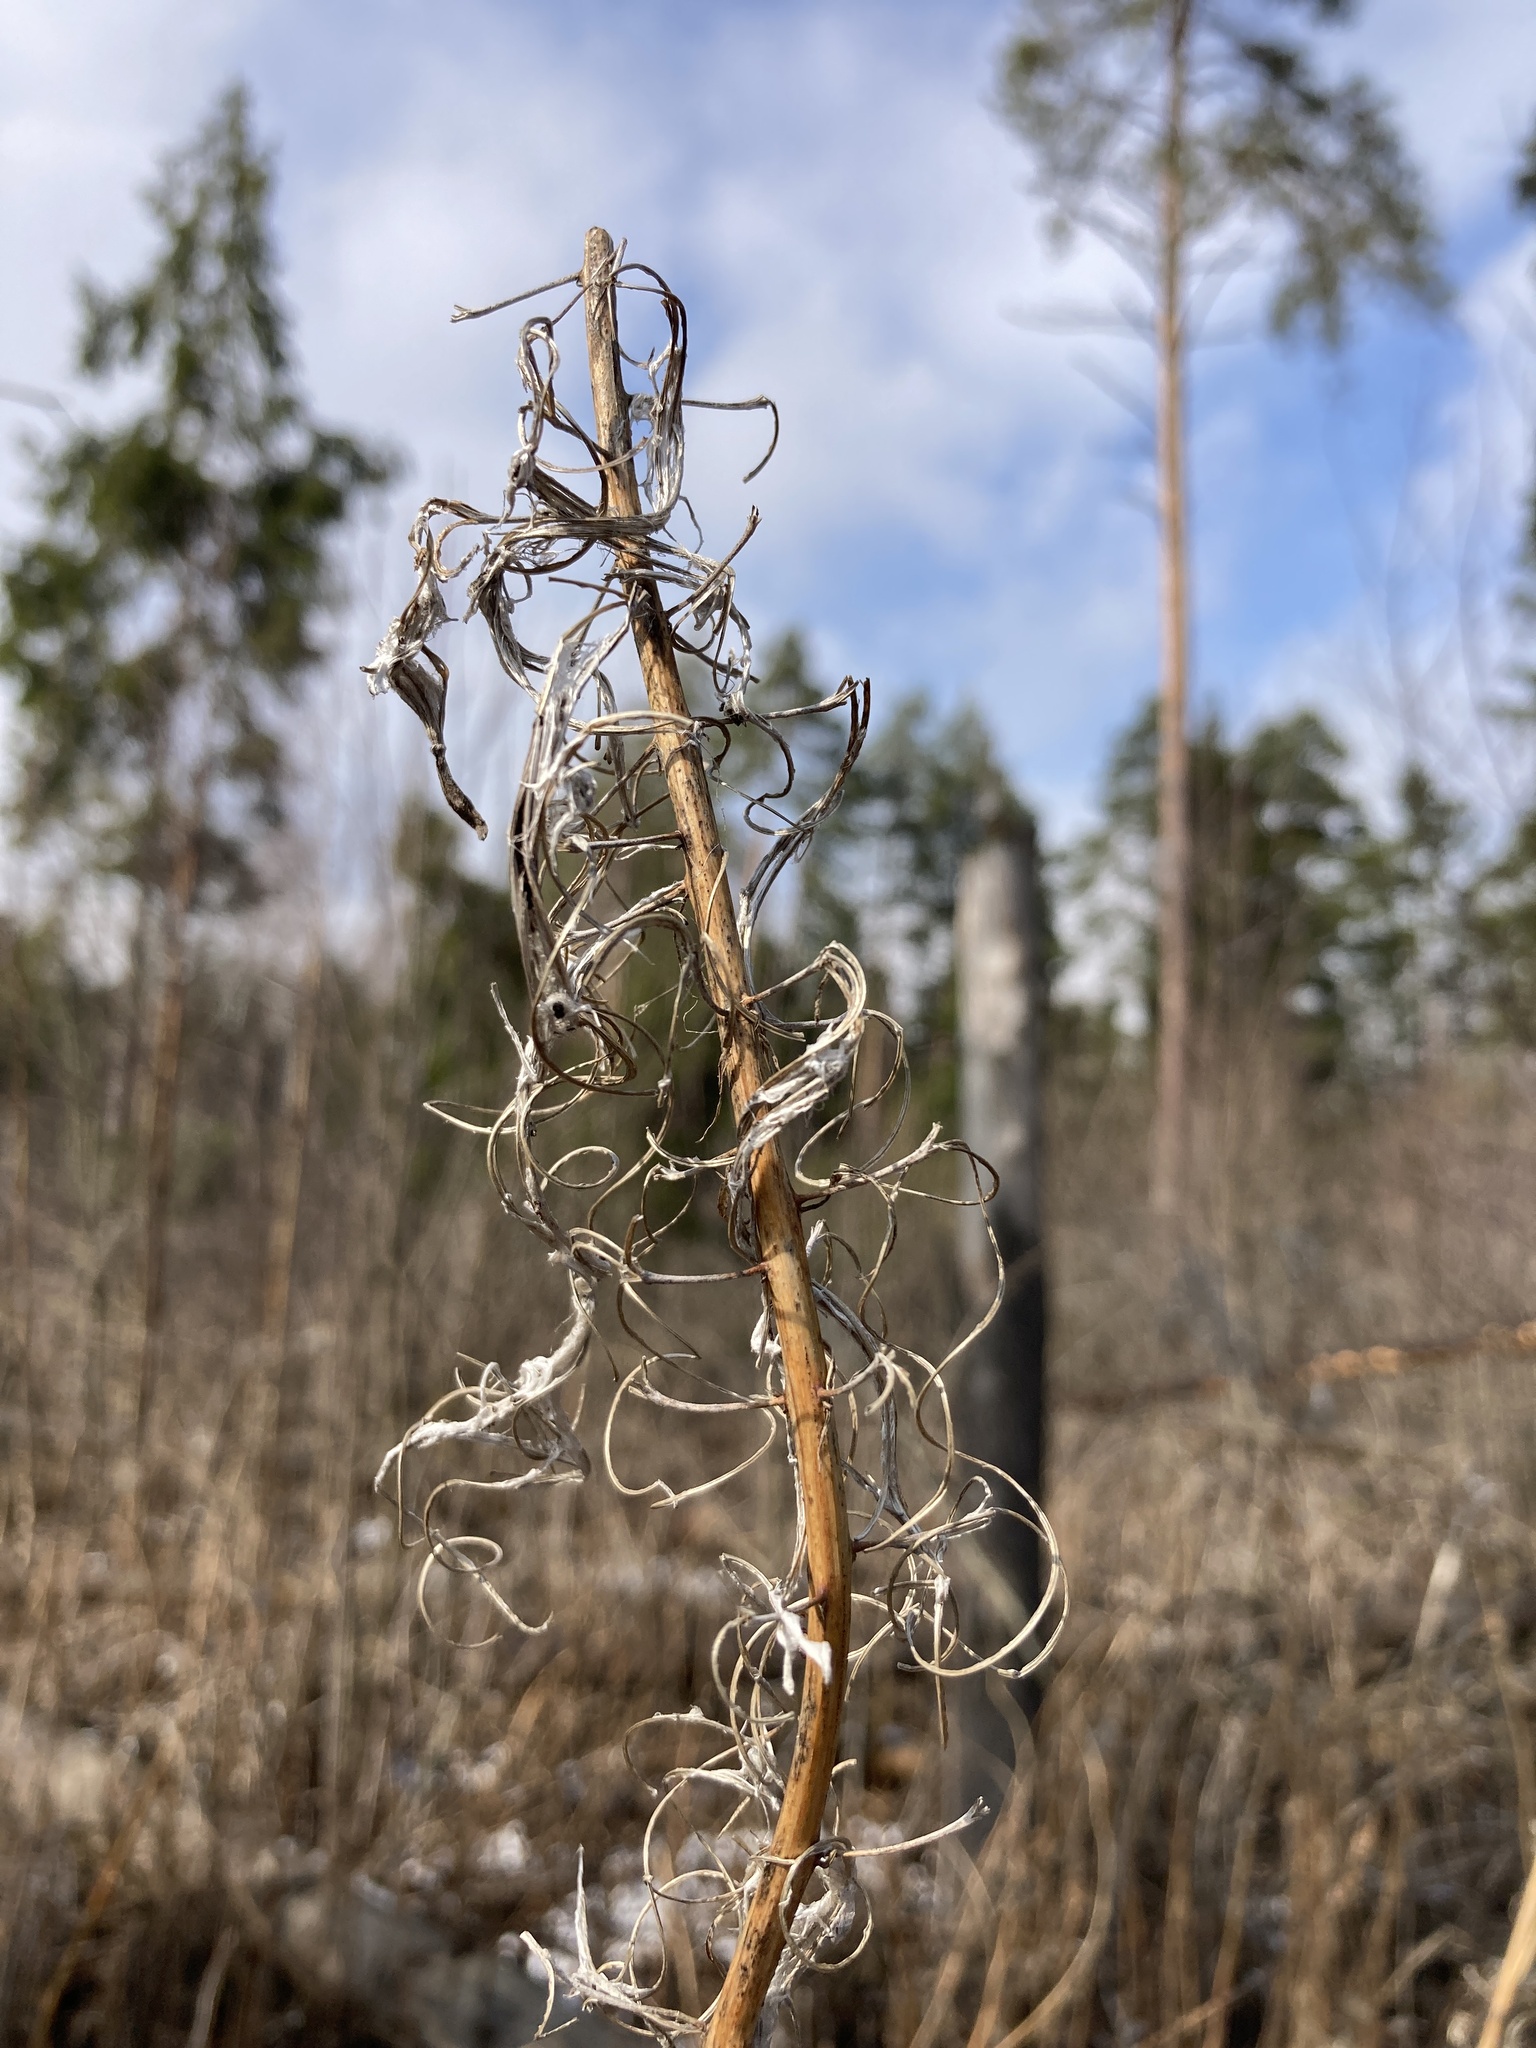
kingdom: Plantae
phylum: Tracheophyta
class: Magnoliopsida
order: Myrtales
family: Onagraceae
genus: Chamaenerion
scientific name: Chamaenerion angustifolium
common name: Fireweed
